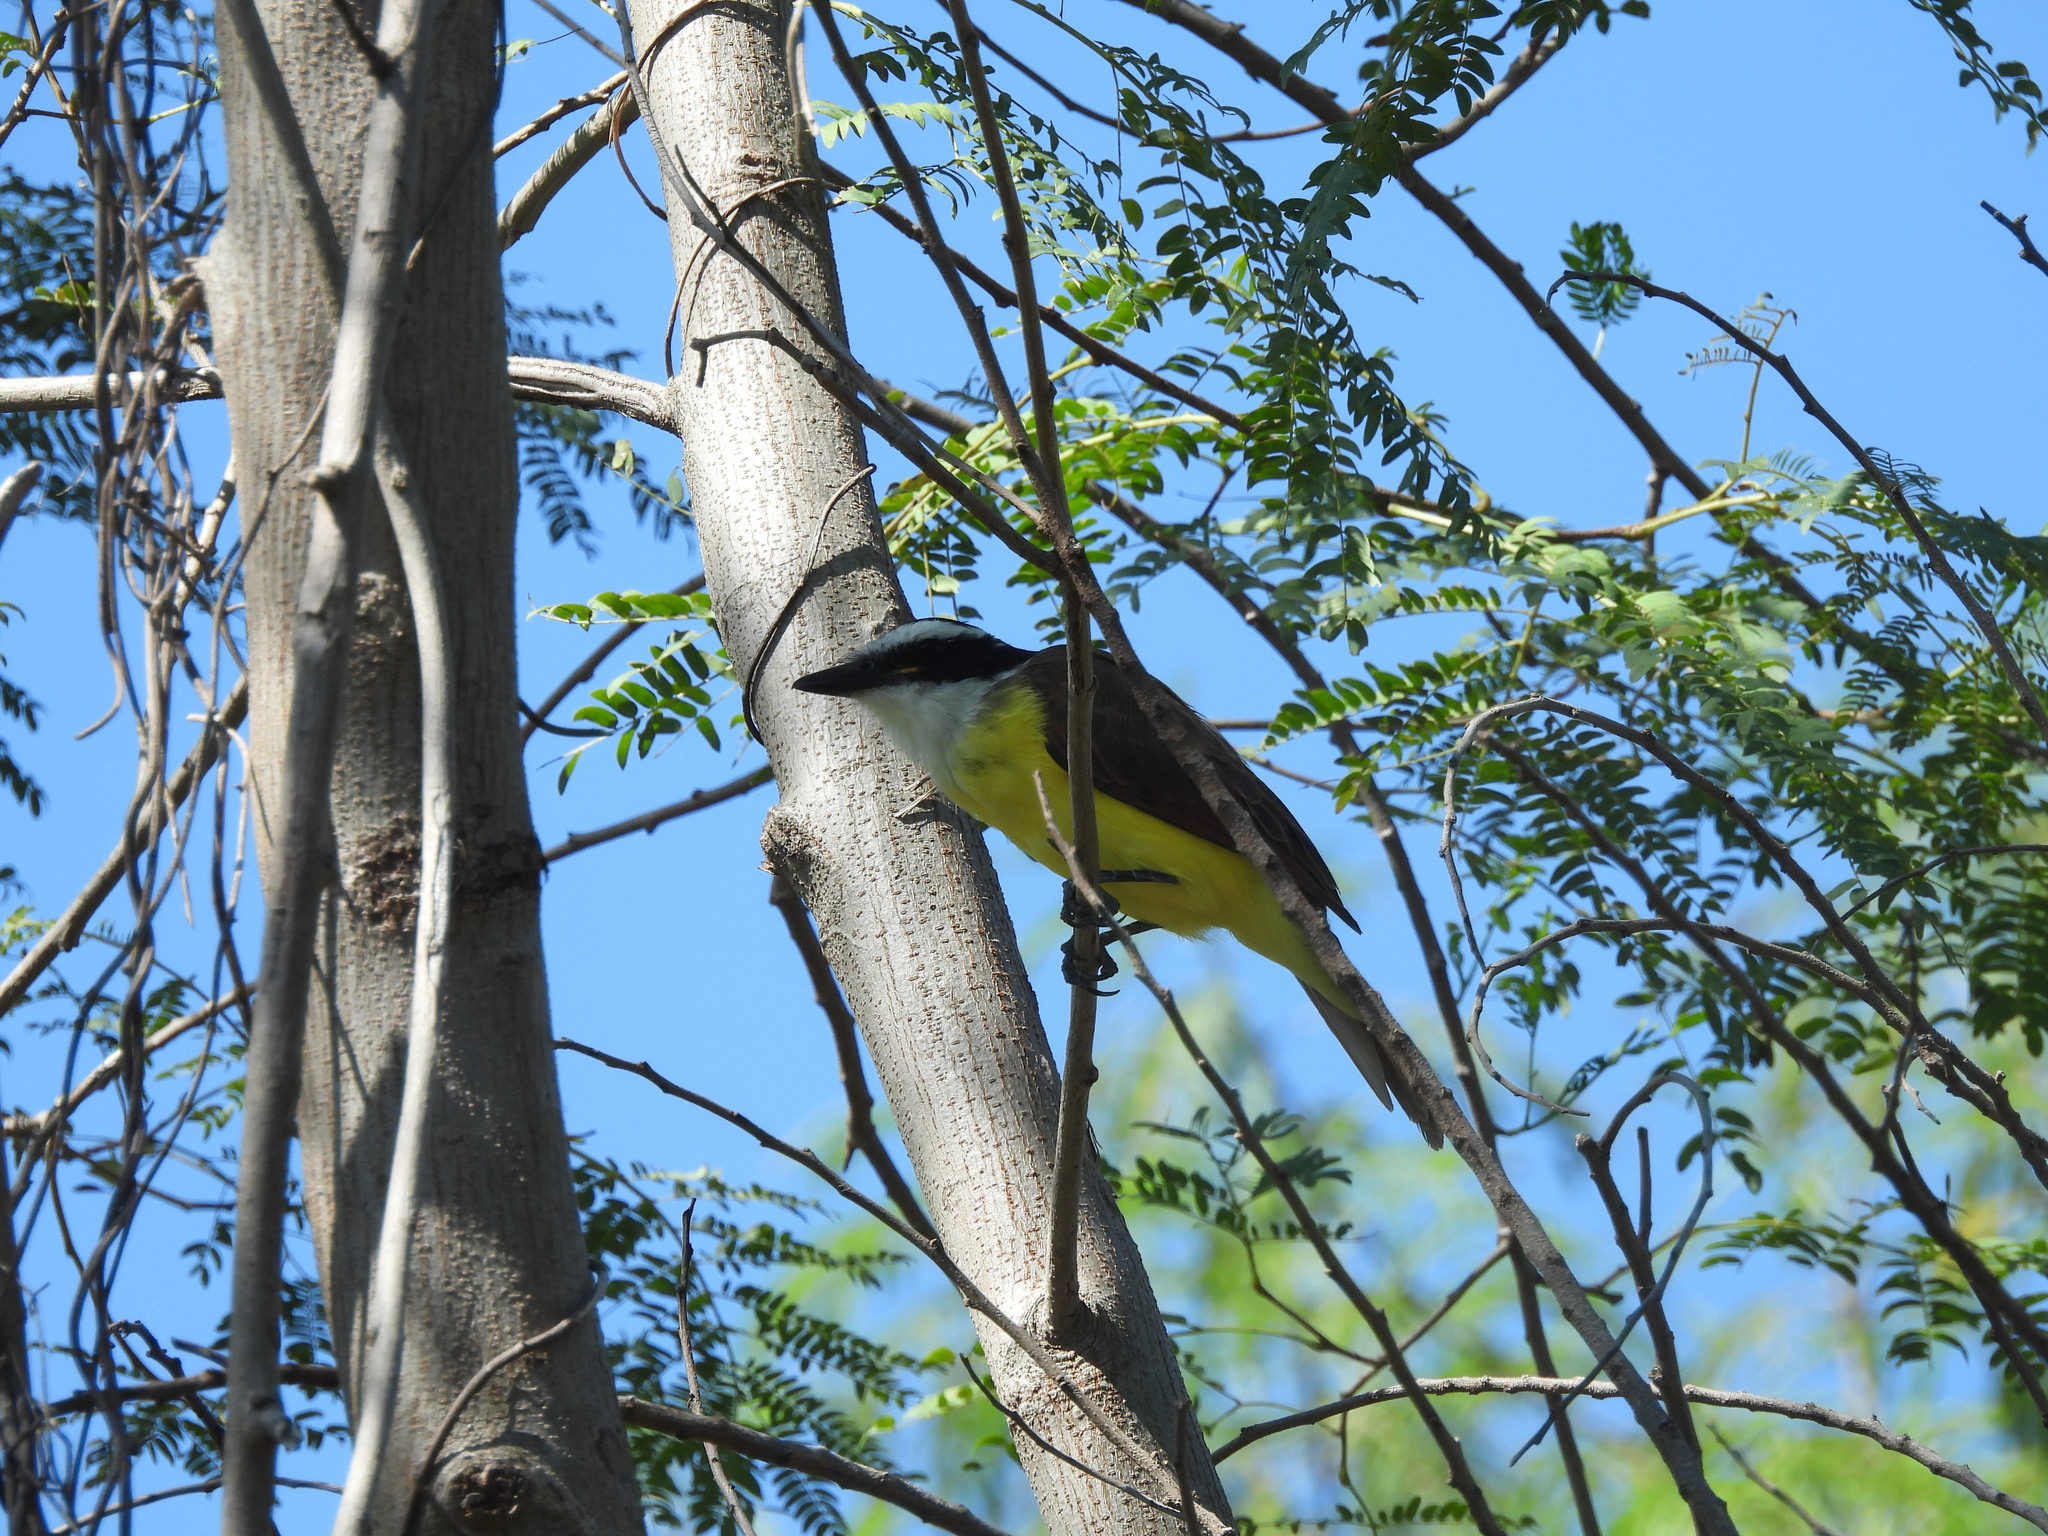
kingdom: Animalia
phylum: Chordata
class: Aves
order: Passeriformes
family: Tyrannidae
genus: Pitangus
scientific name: Pitangus sulphuratus
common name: Great kiskadee
